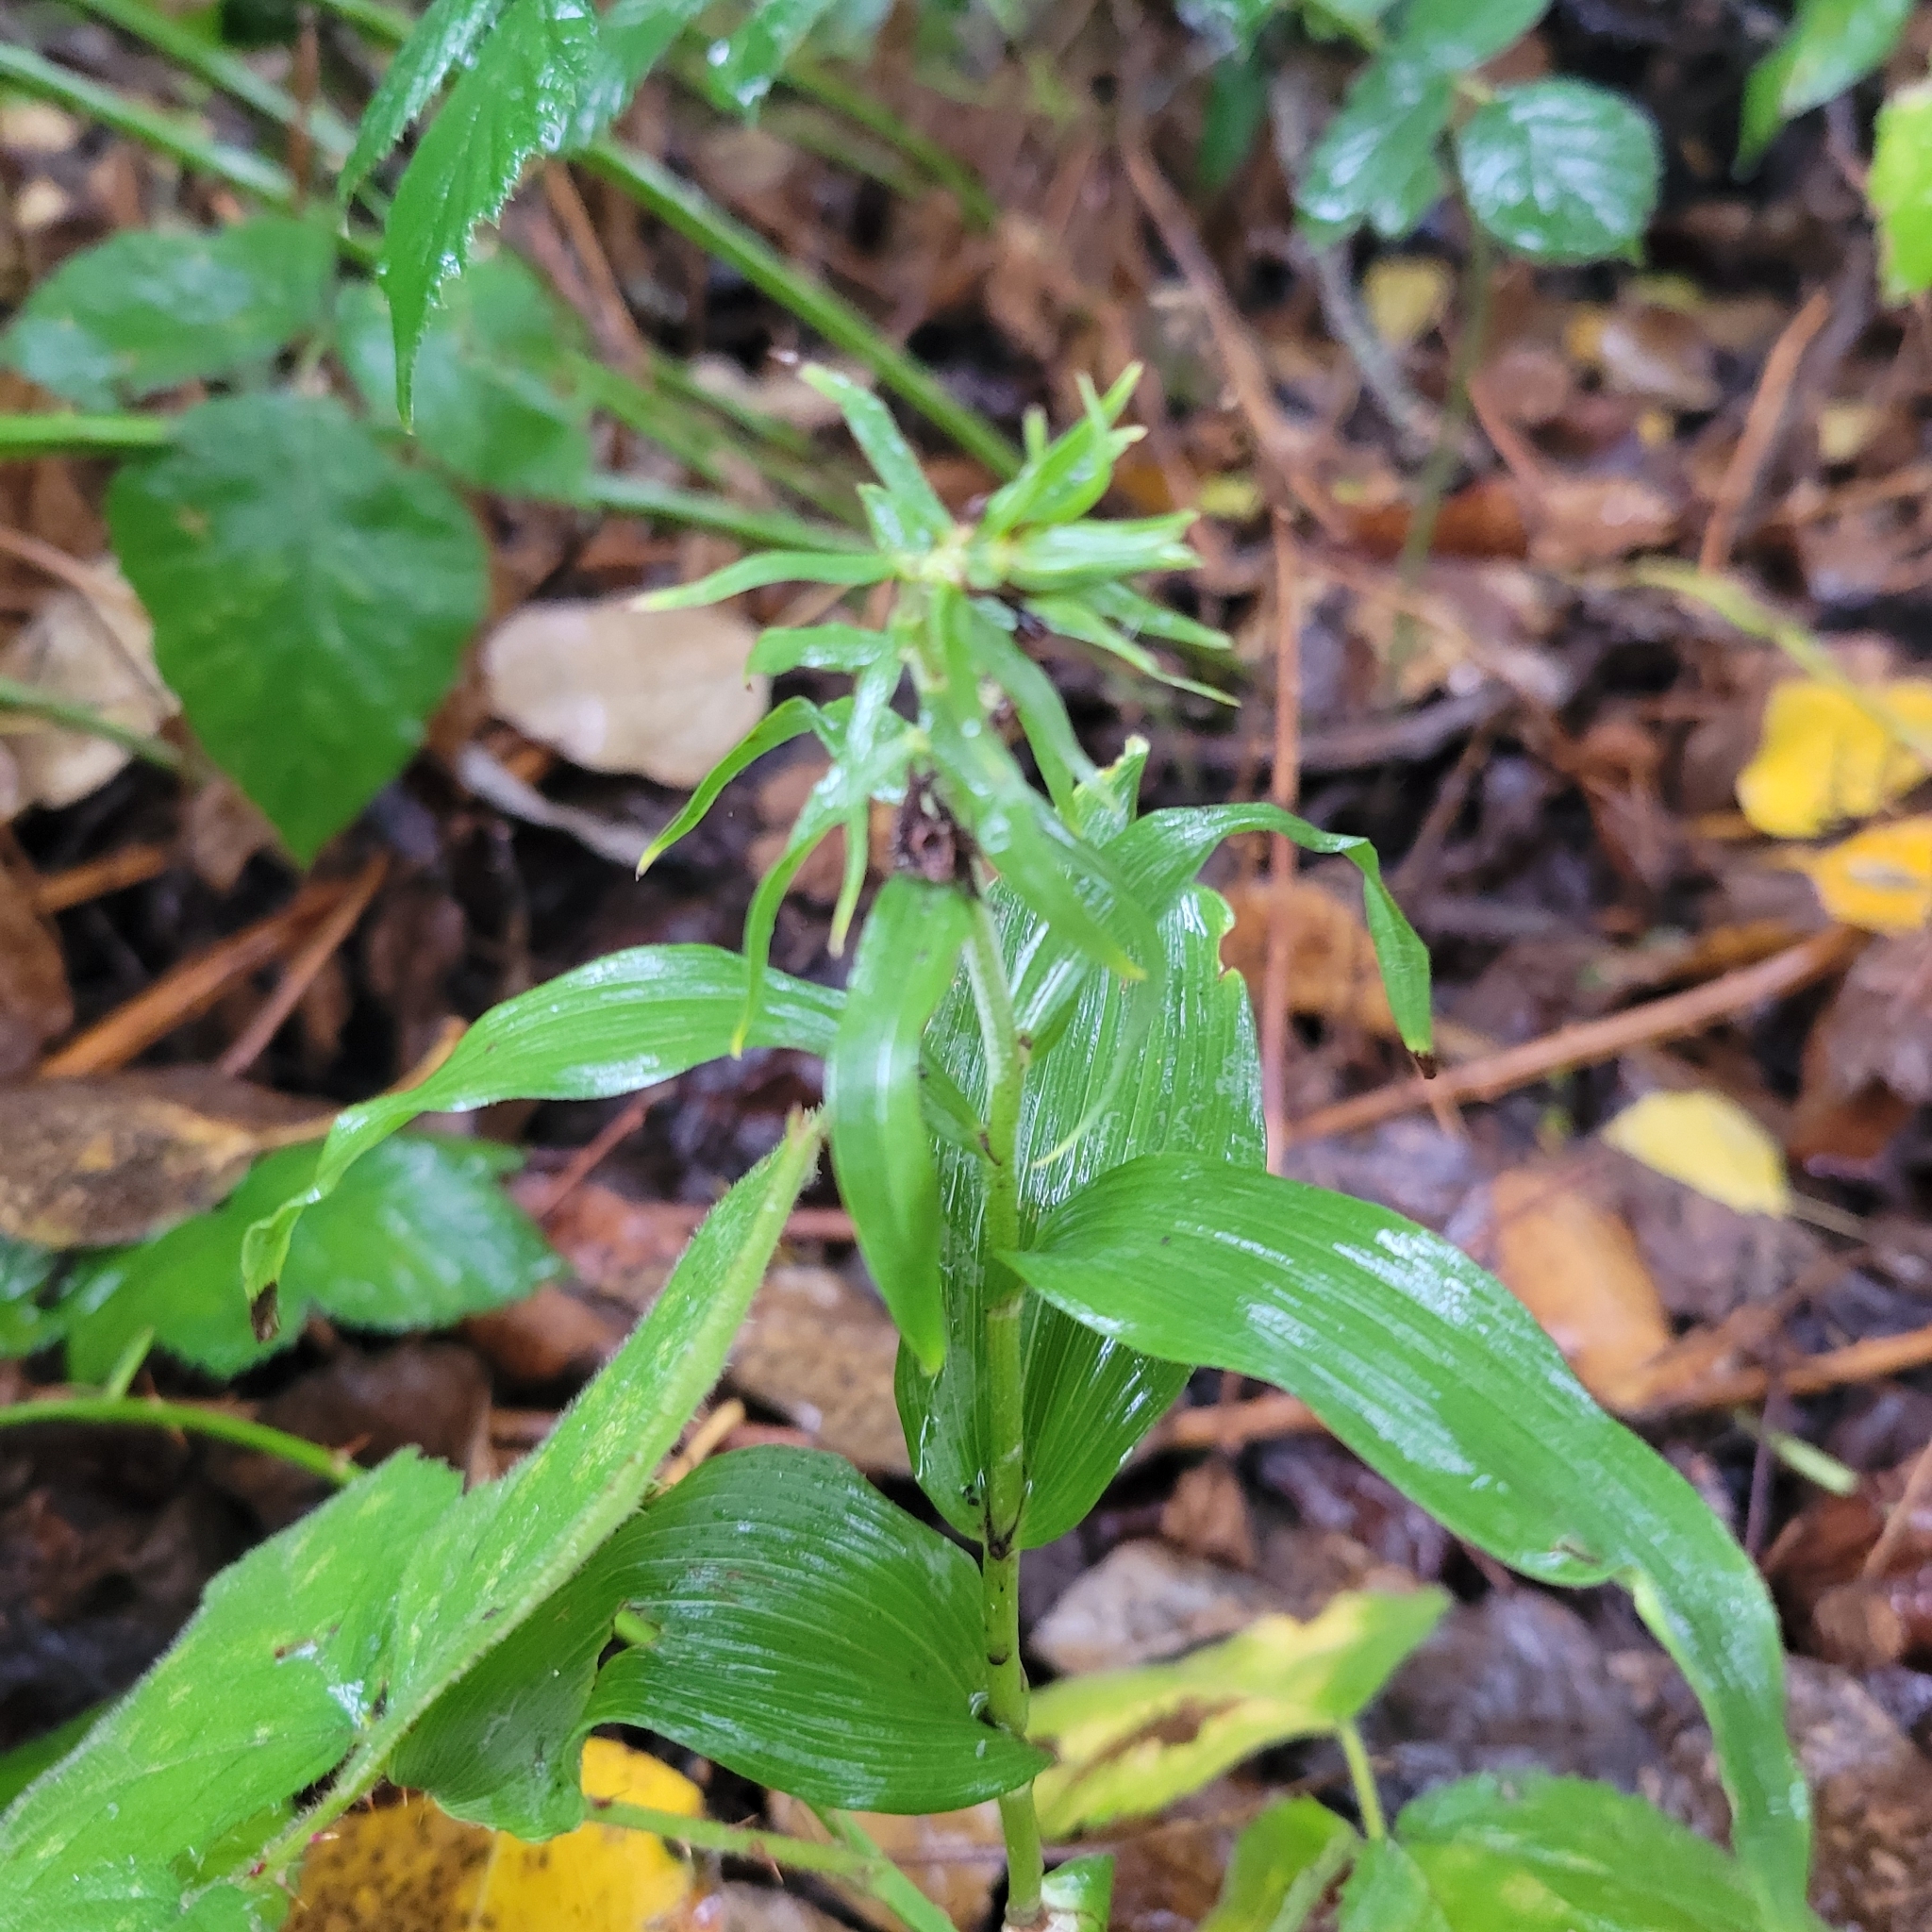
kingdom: Plantae
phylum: Tracheophyta
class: Liliopsida
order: Asparagales
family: Orchidaceae
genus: Epipactis
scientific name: Epipactis helleborine
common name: Broad-leaved helleborine
